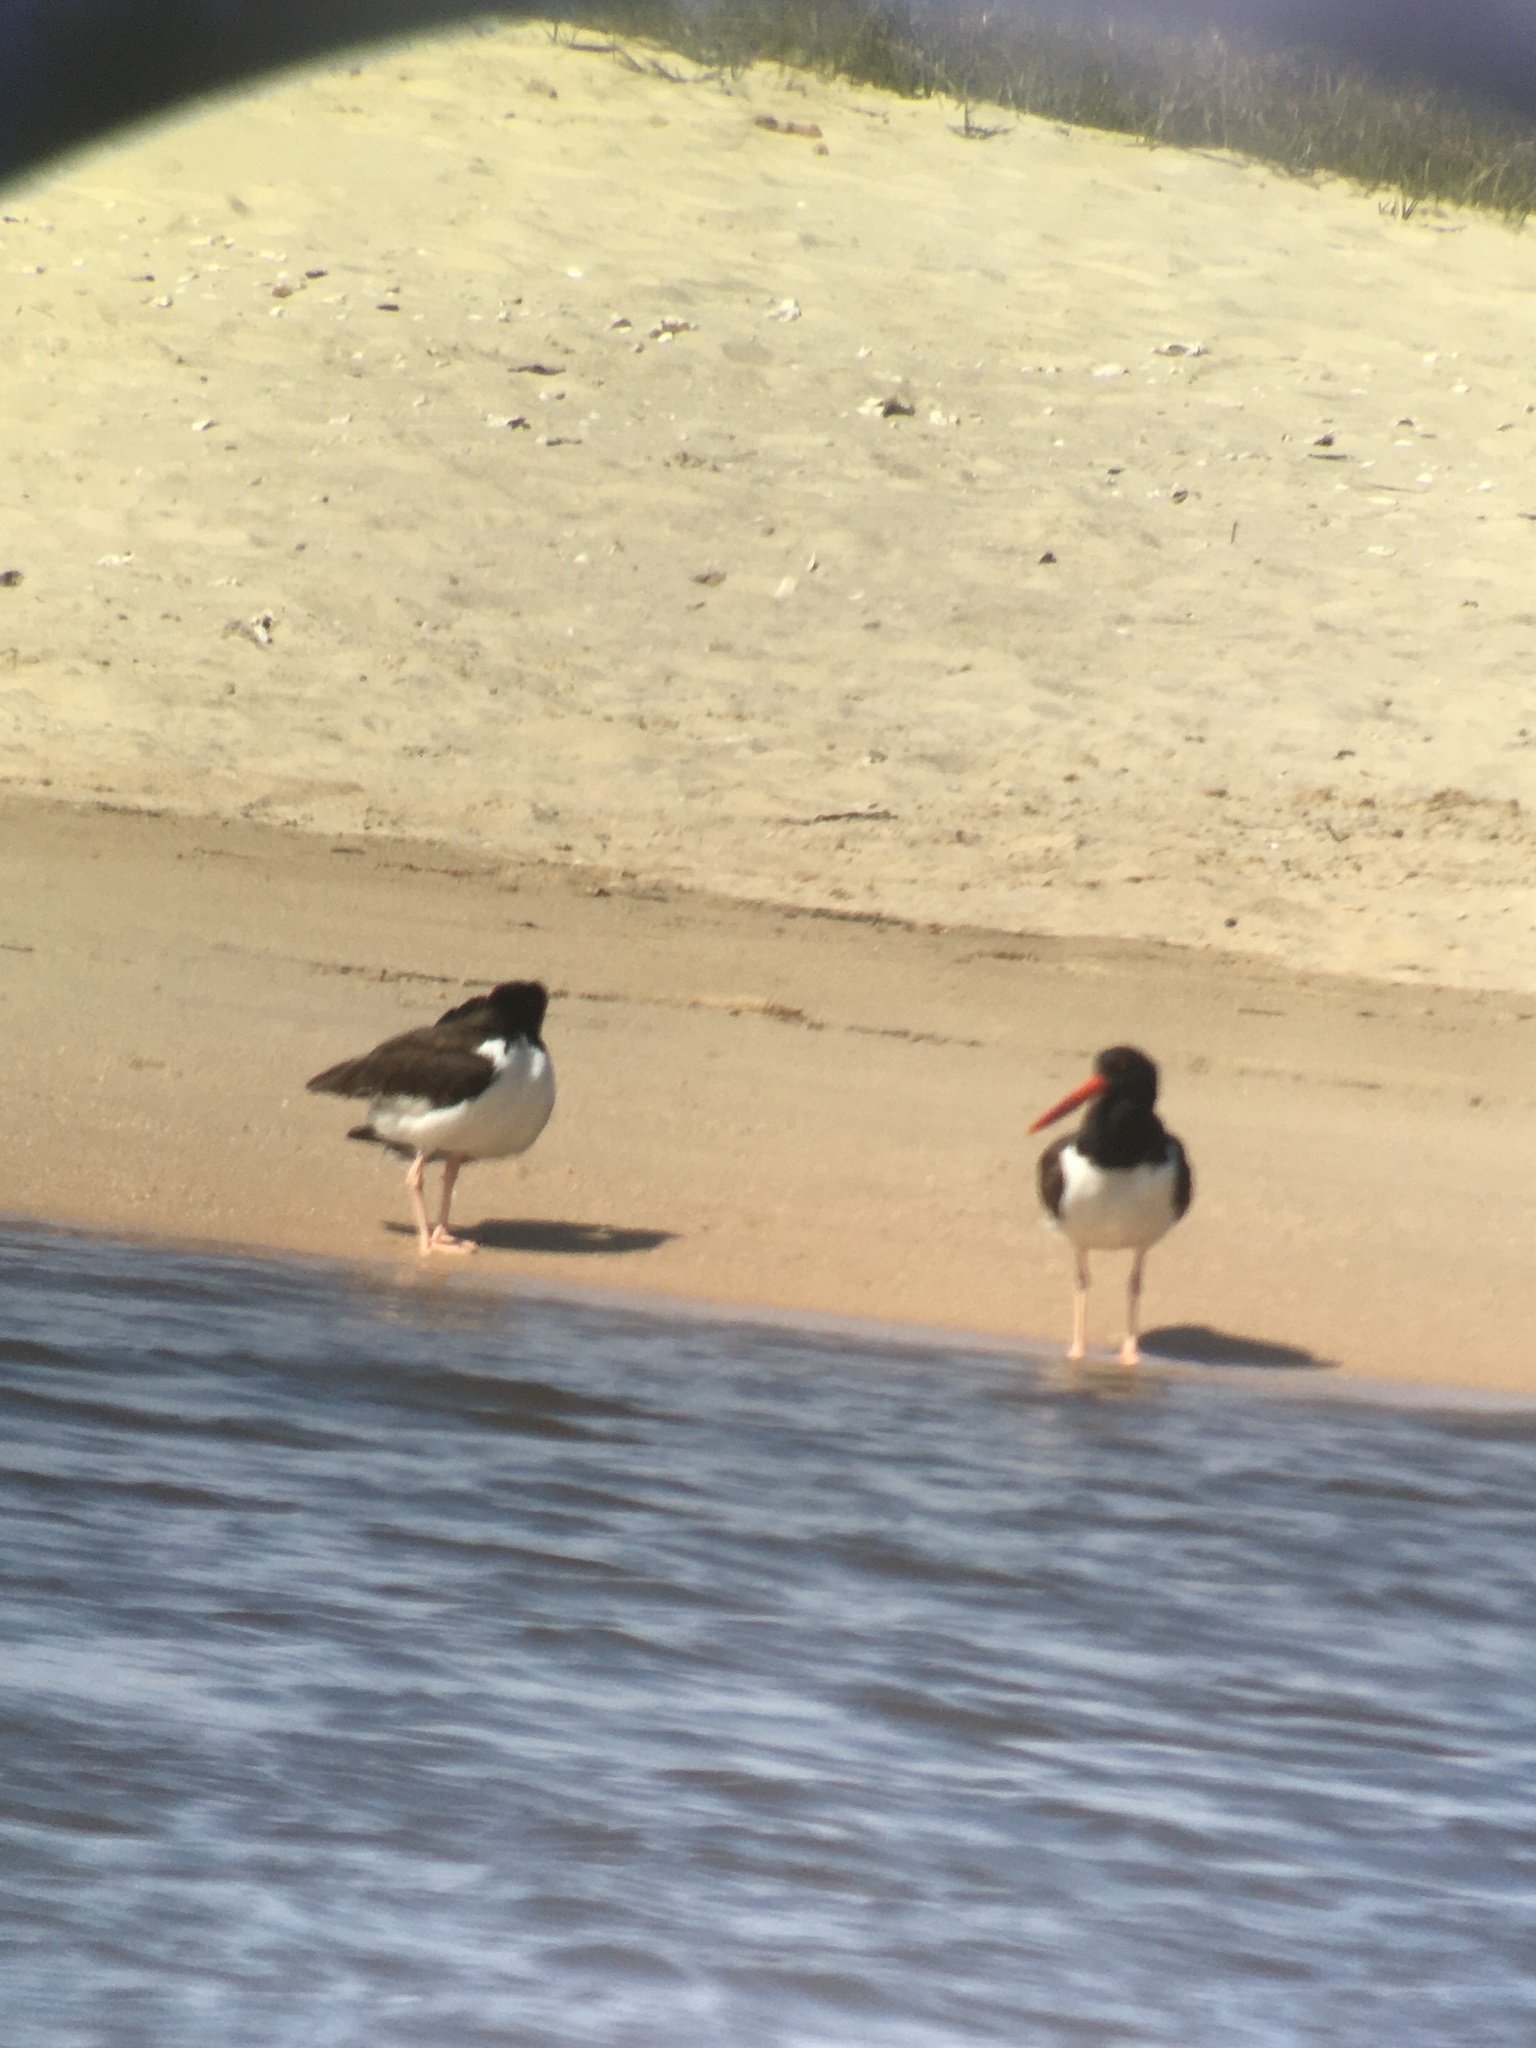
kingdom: Animalia
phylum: Chordata
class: Aves
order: Charadriiformes
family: Haematopodidae
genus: Haematopus
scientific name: Haematopus palliatus
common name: American oystercatcher
